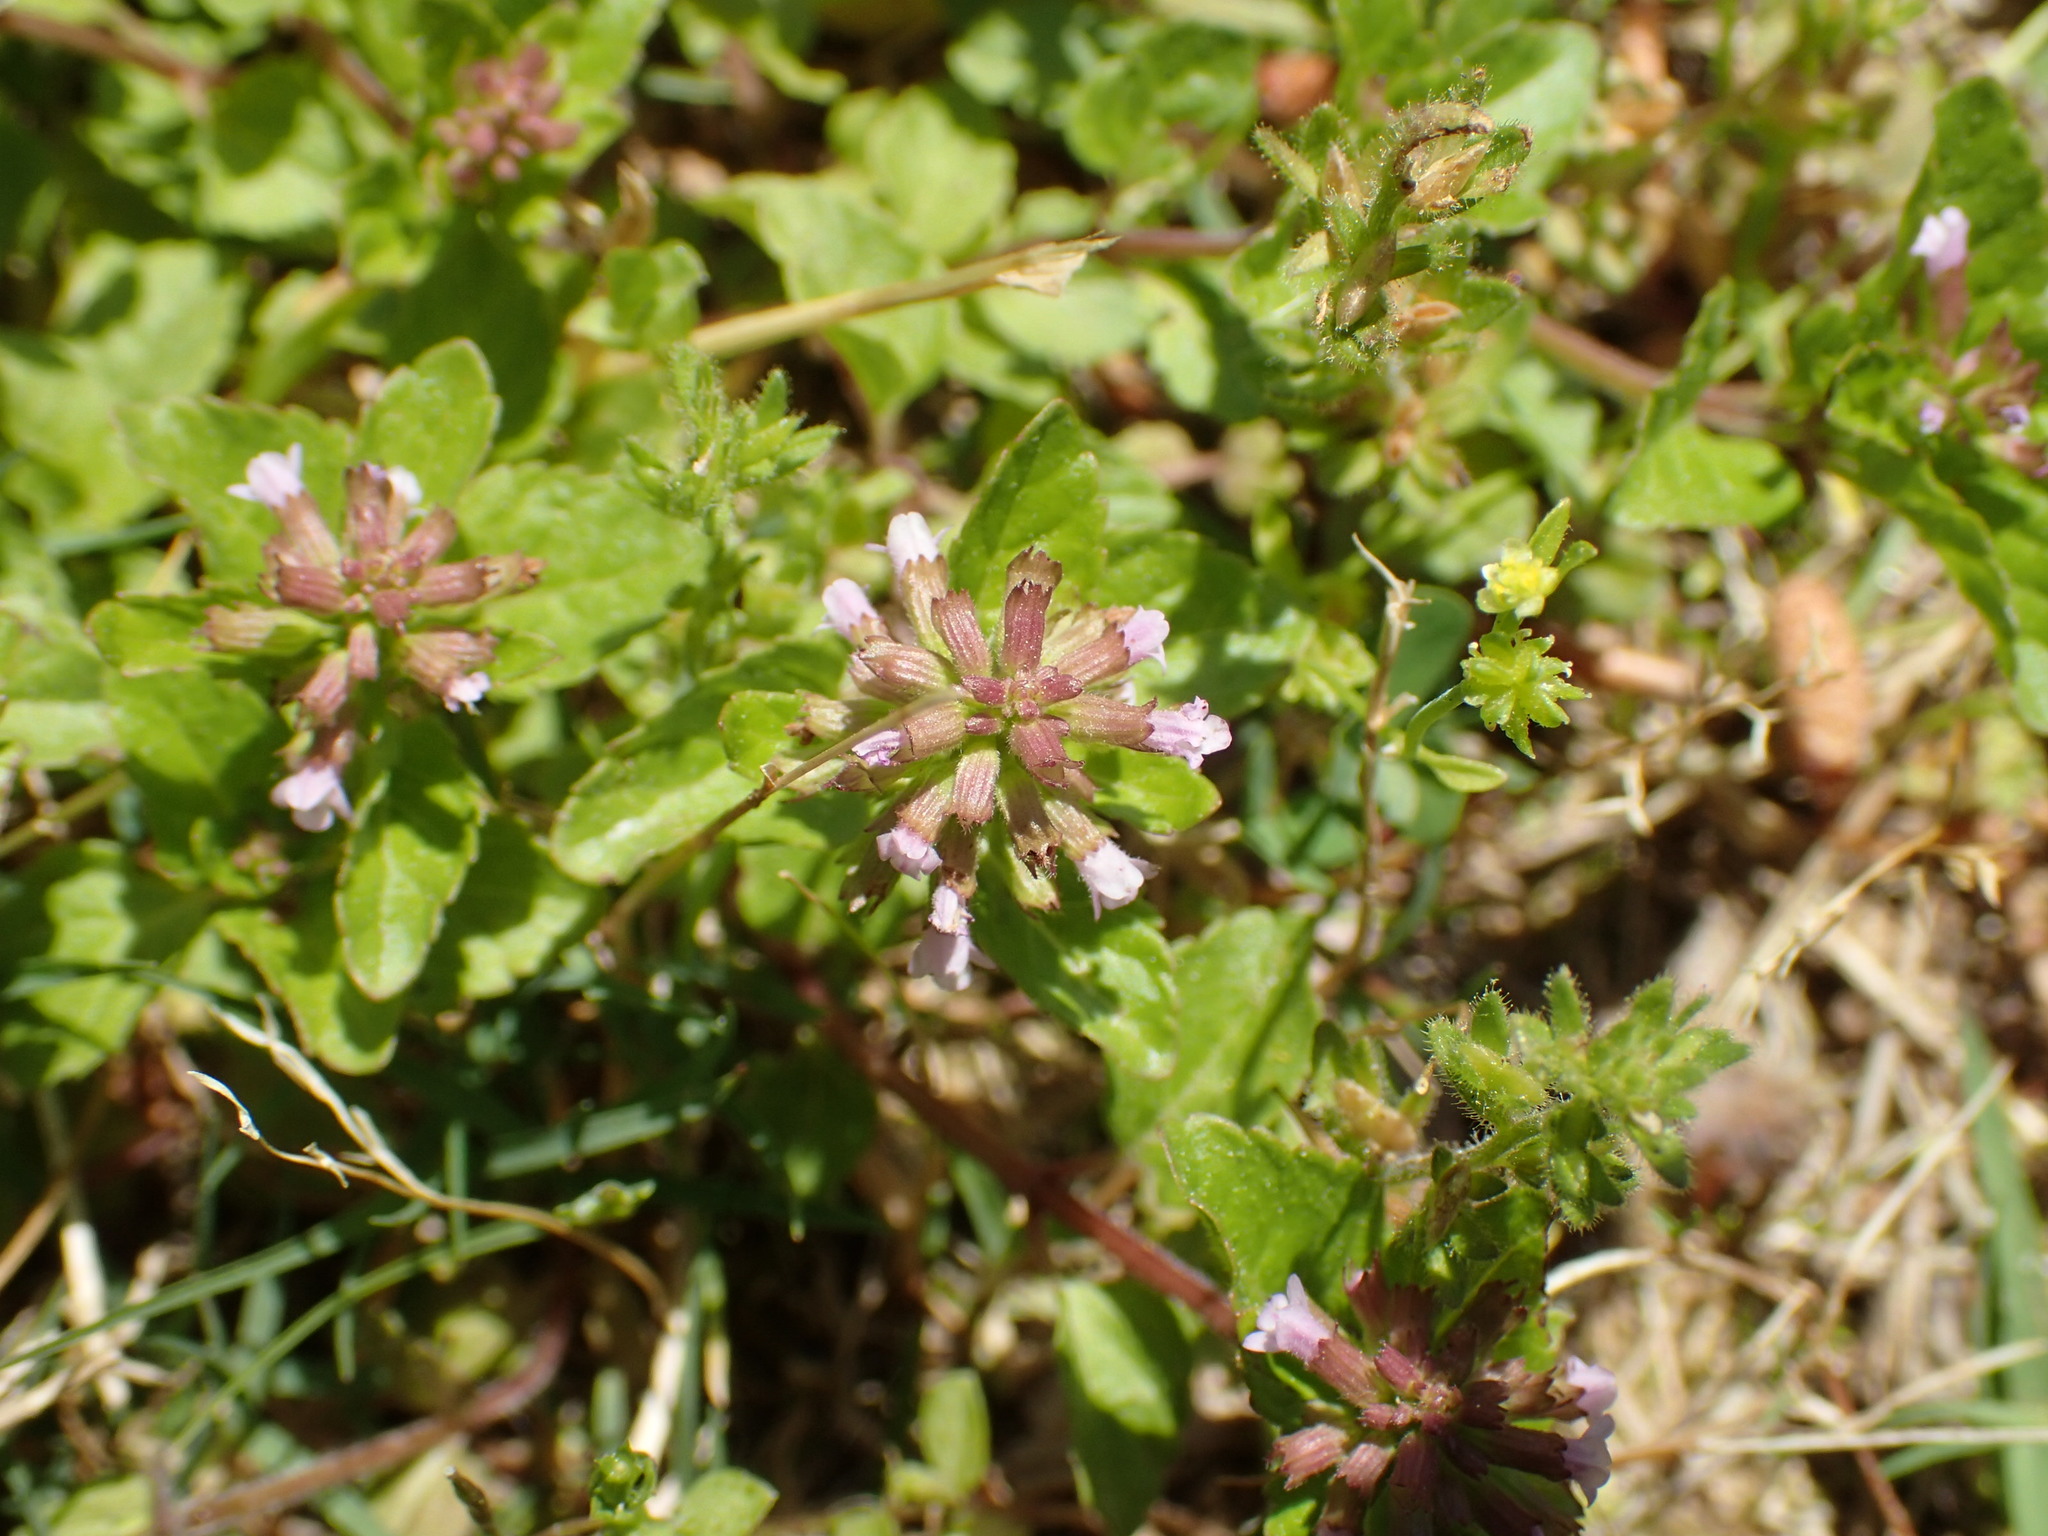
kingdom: Plantae
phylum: Tracheophyta
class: Magnoliopsida
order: Lamiales
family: Lamiaceae
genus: Clinopodium
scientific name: Clinopodium gracile
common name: Slender wild basil
